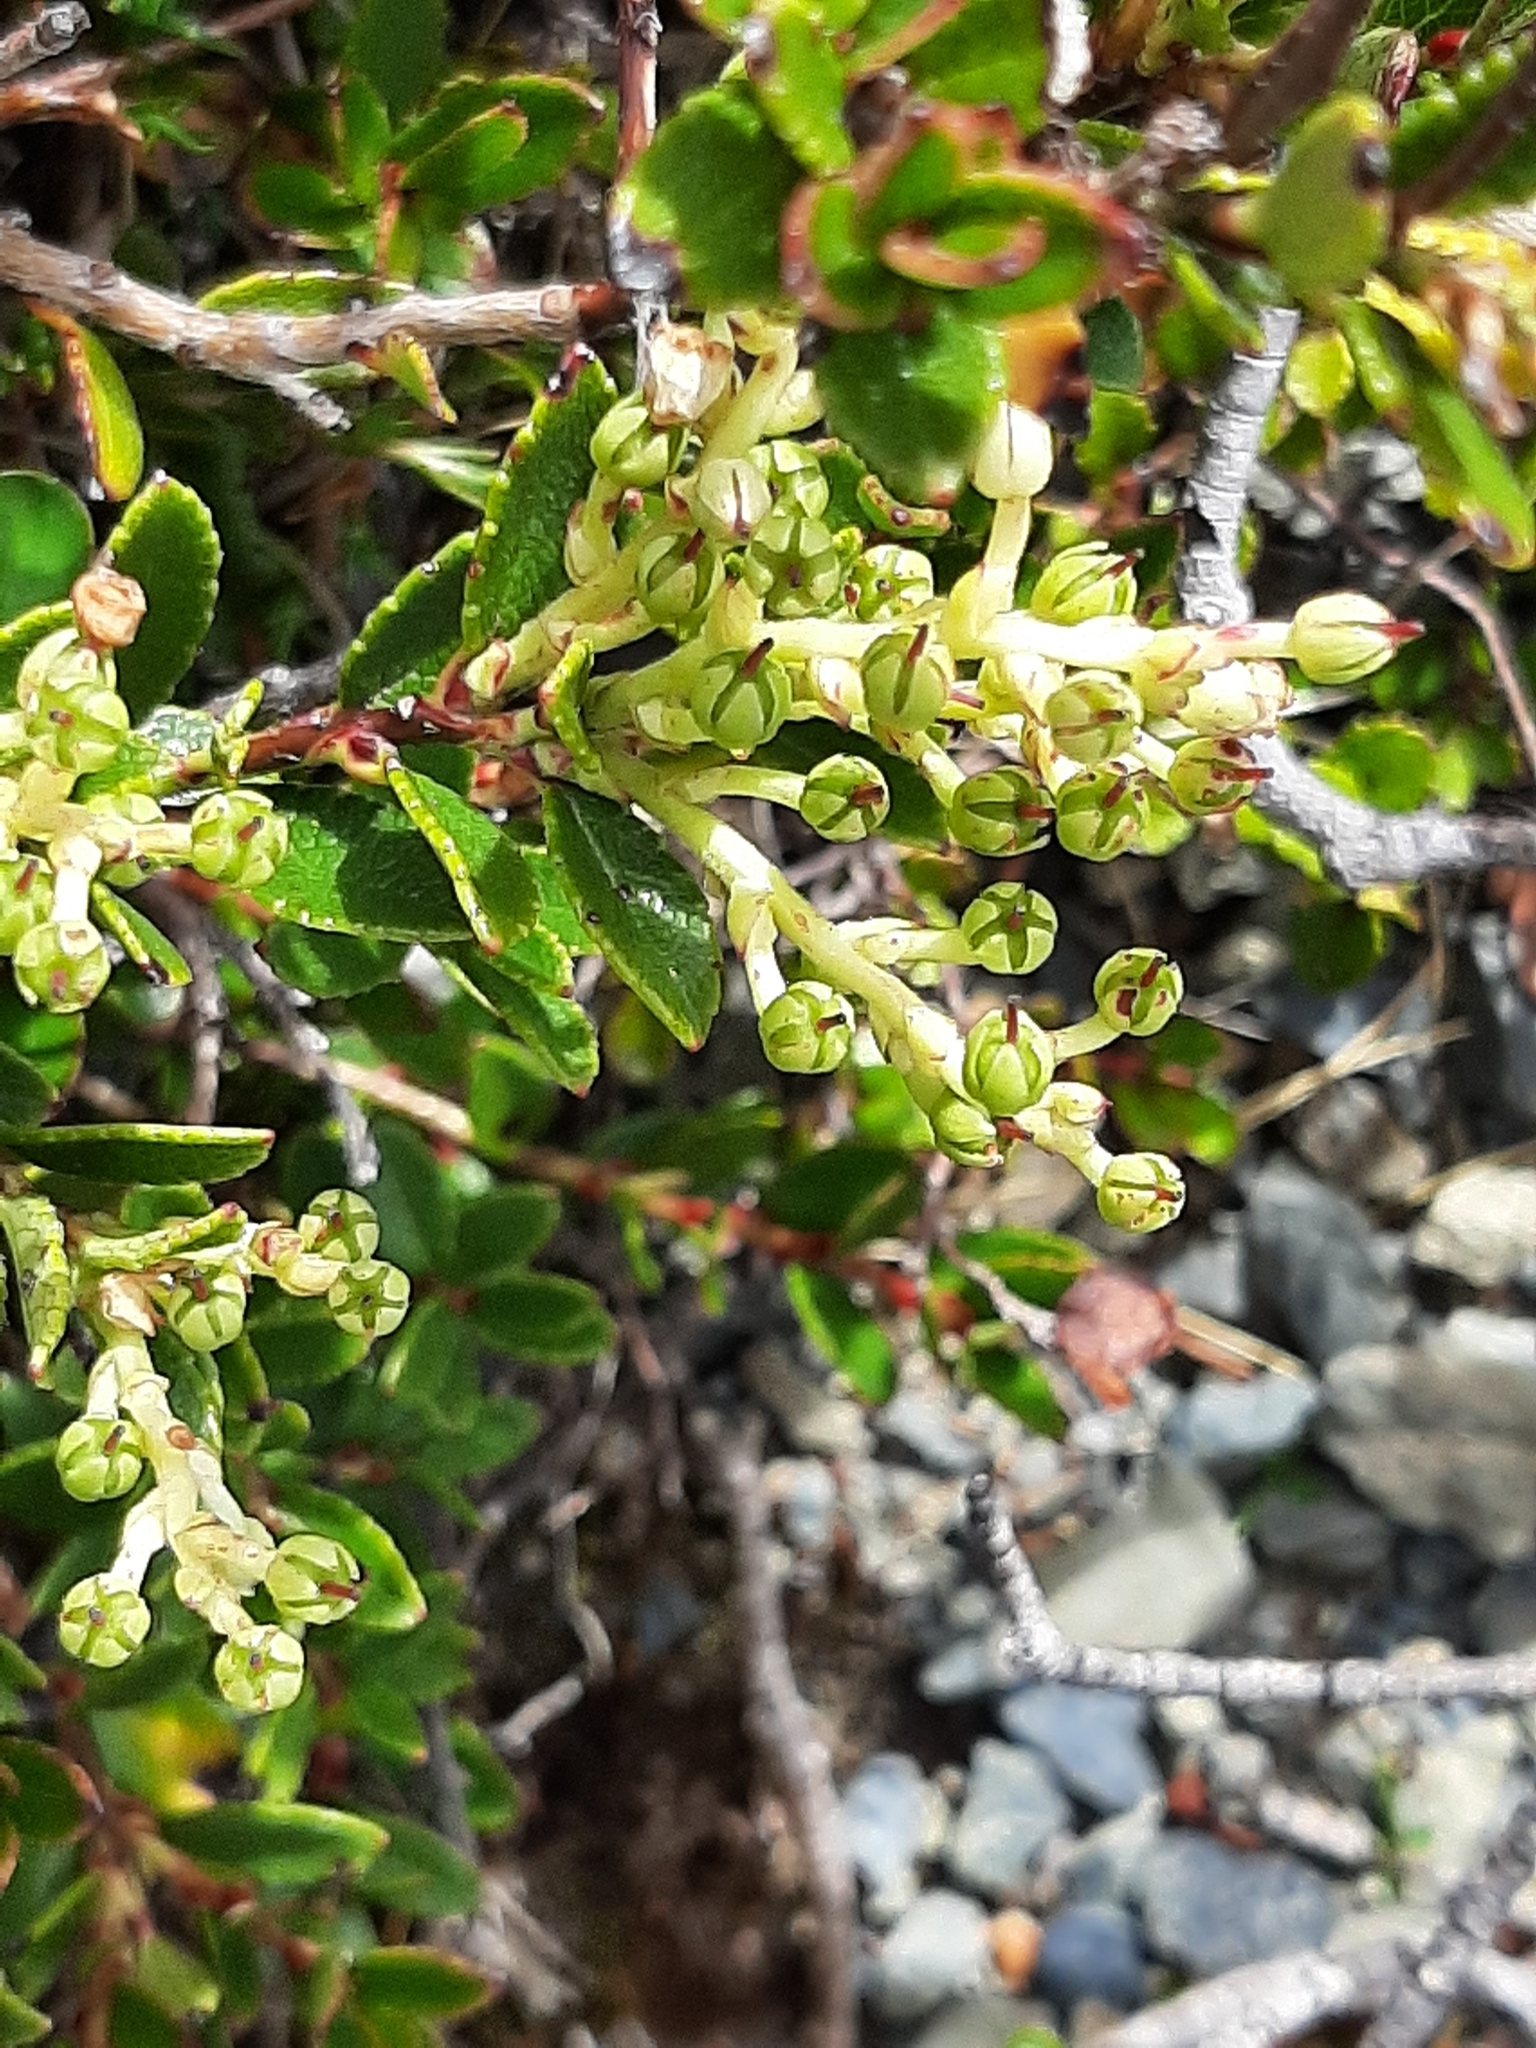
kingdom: Plantae
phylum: Tracheophyta
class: Magnoliopsida
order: Ericales
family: Ericaceae
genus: Gaultheria
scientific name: Gaultheria crassa
